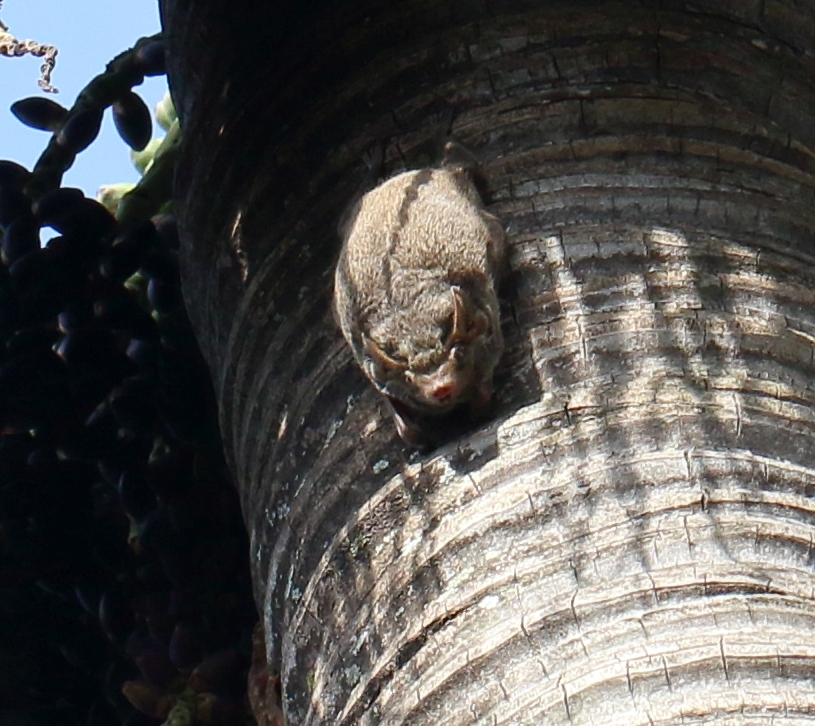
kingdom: Animalia
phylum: Chordata
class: Mammalia
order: Chiroptera
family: Emballonuridae
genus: Taphozous
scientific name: Taphozous mauritianus
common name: Mauritian tomb bat
